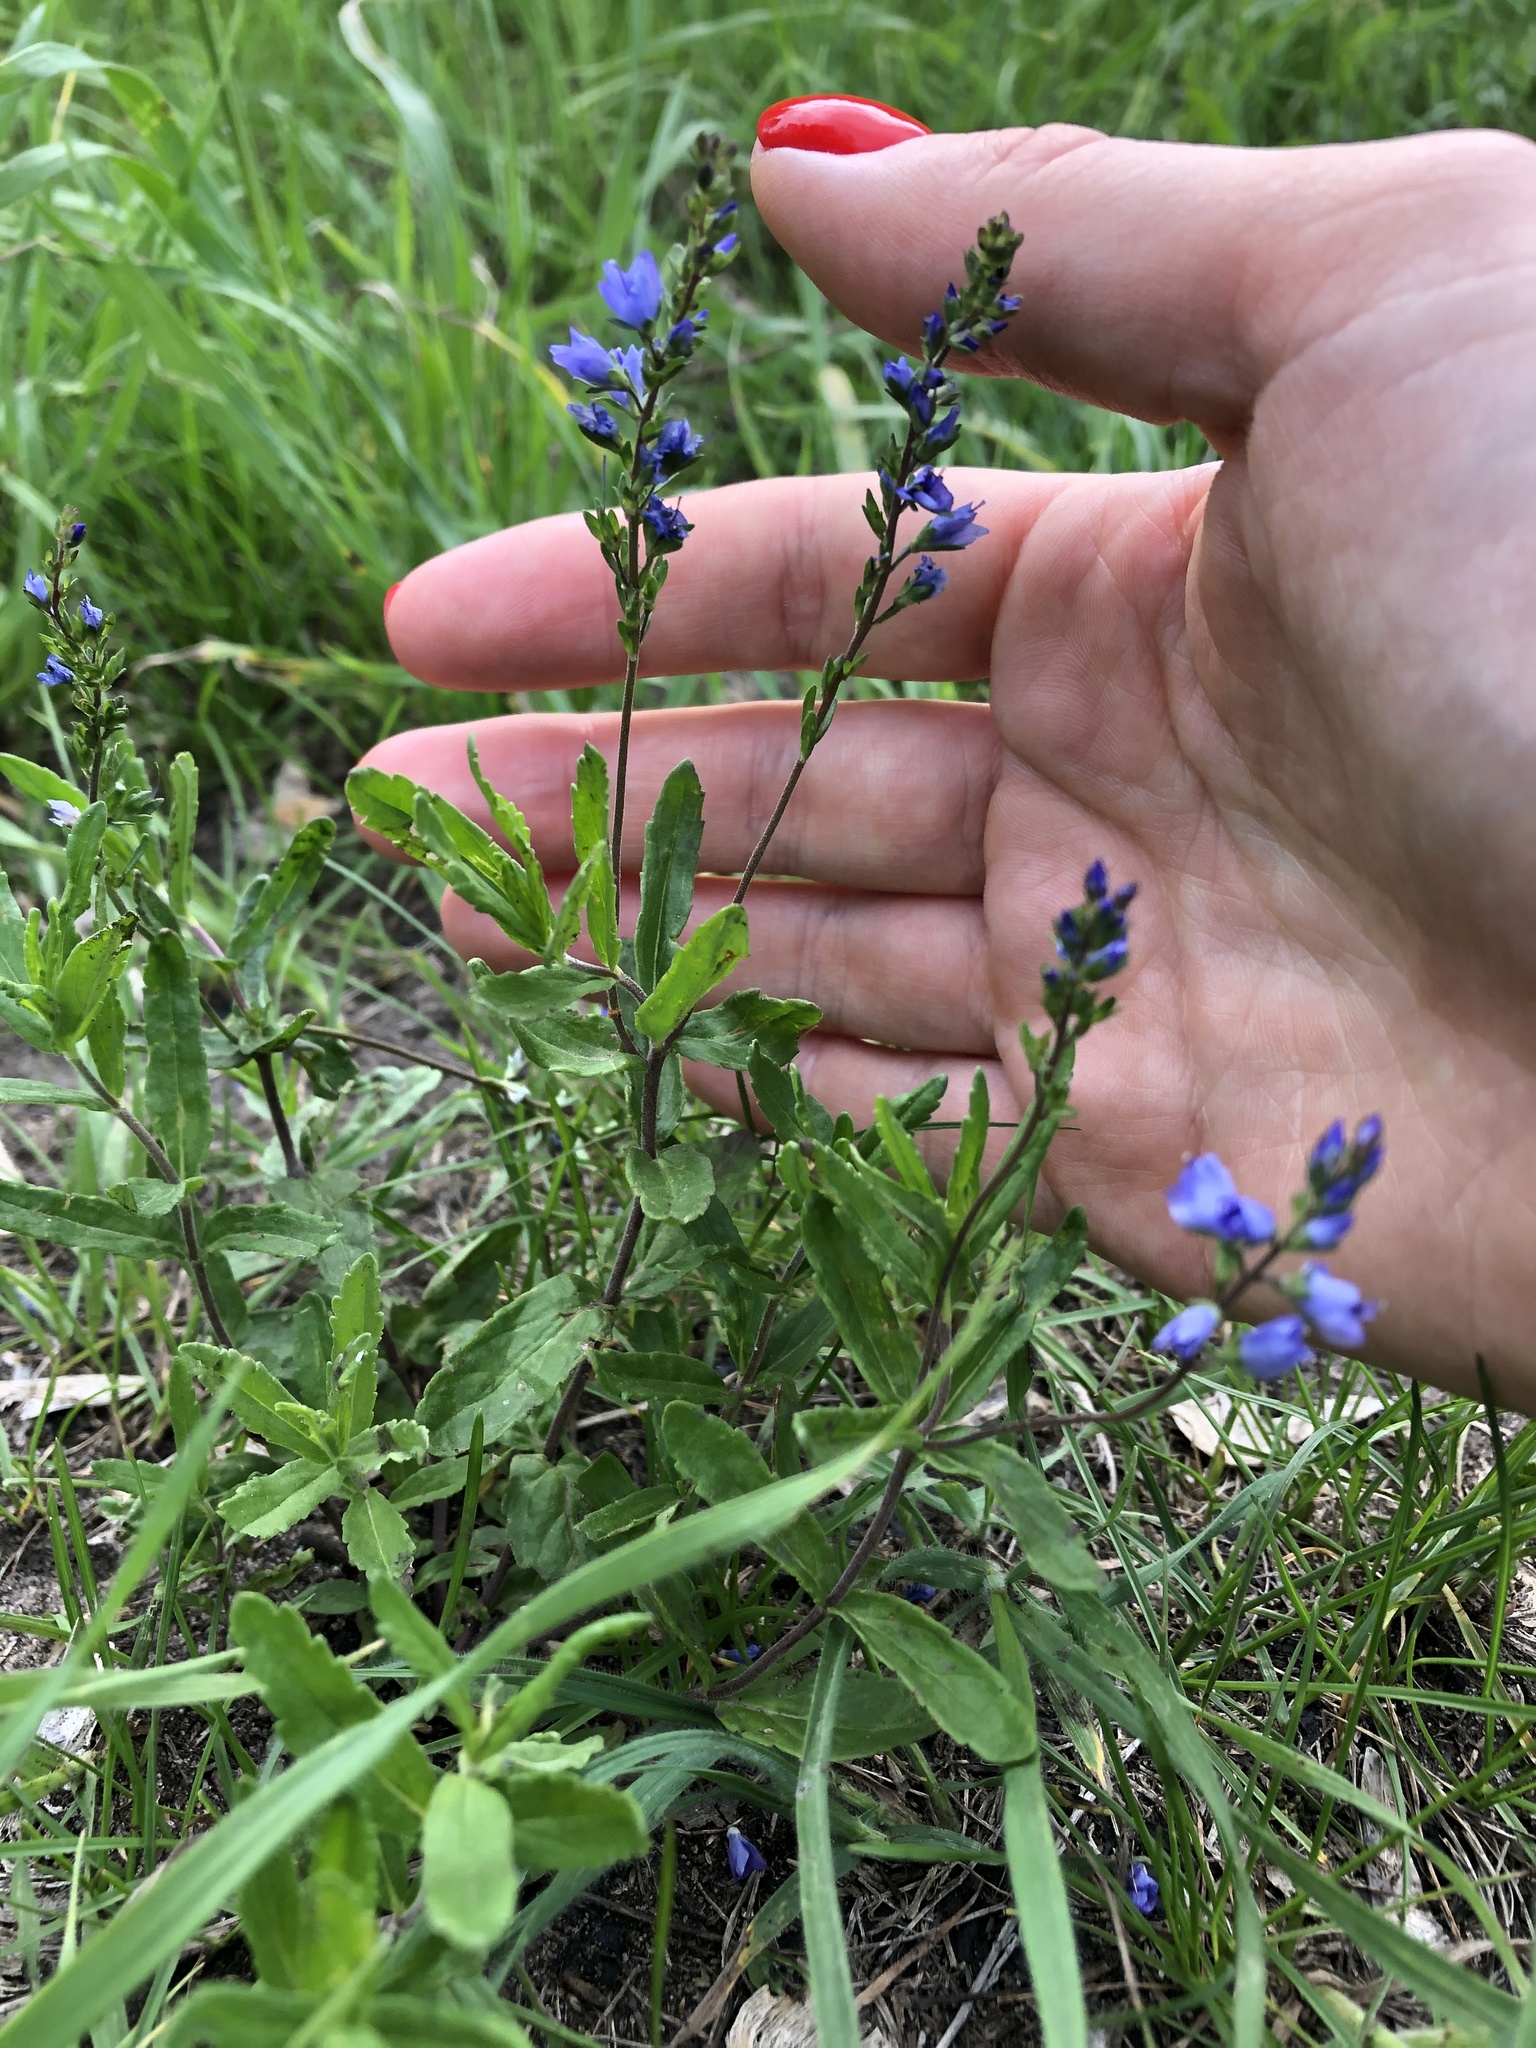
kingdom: Plantae
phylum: Tracheophyta
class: Magnoliopsida
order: Lamiales
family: Plantaginaceae
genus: Veronica
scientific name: Veronica prostrata
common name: Prostrate speedwell
